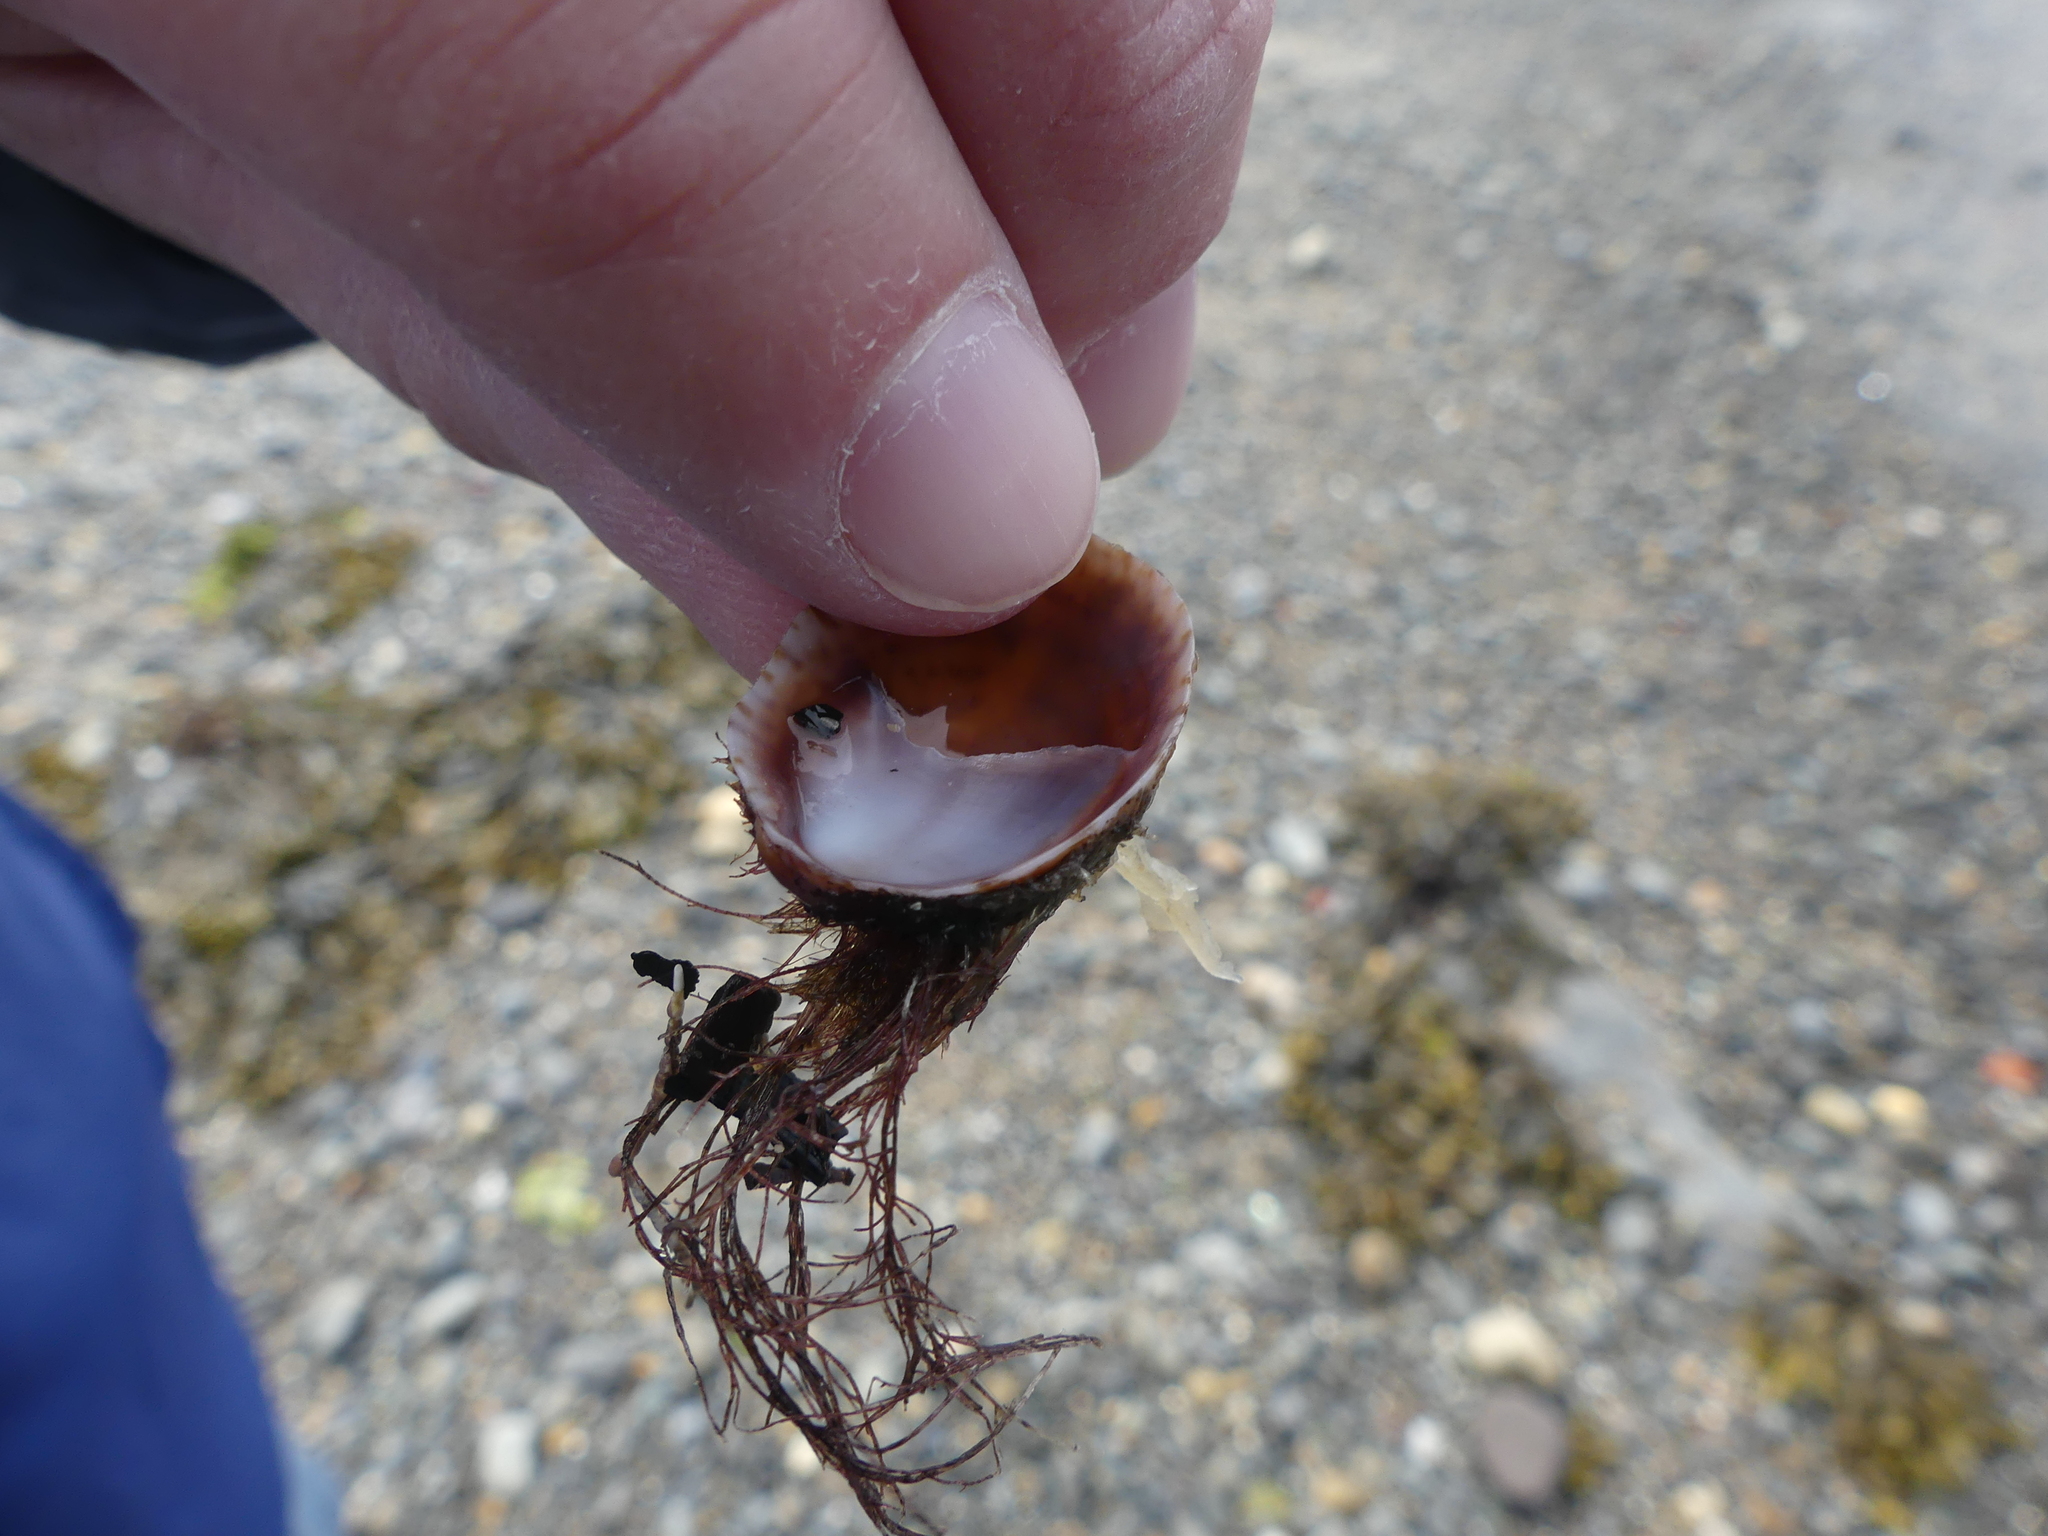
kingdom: Animalia
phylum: Mollusca
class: Gastropoda
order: Littorinimorpha
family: Calyptraeidae
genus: Crepidula
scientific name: Crepidula fornicata
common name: Slipper limpet
